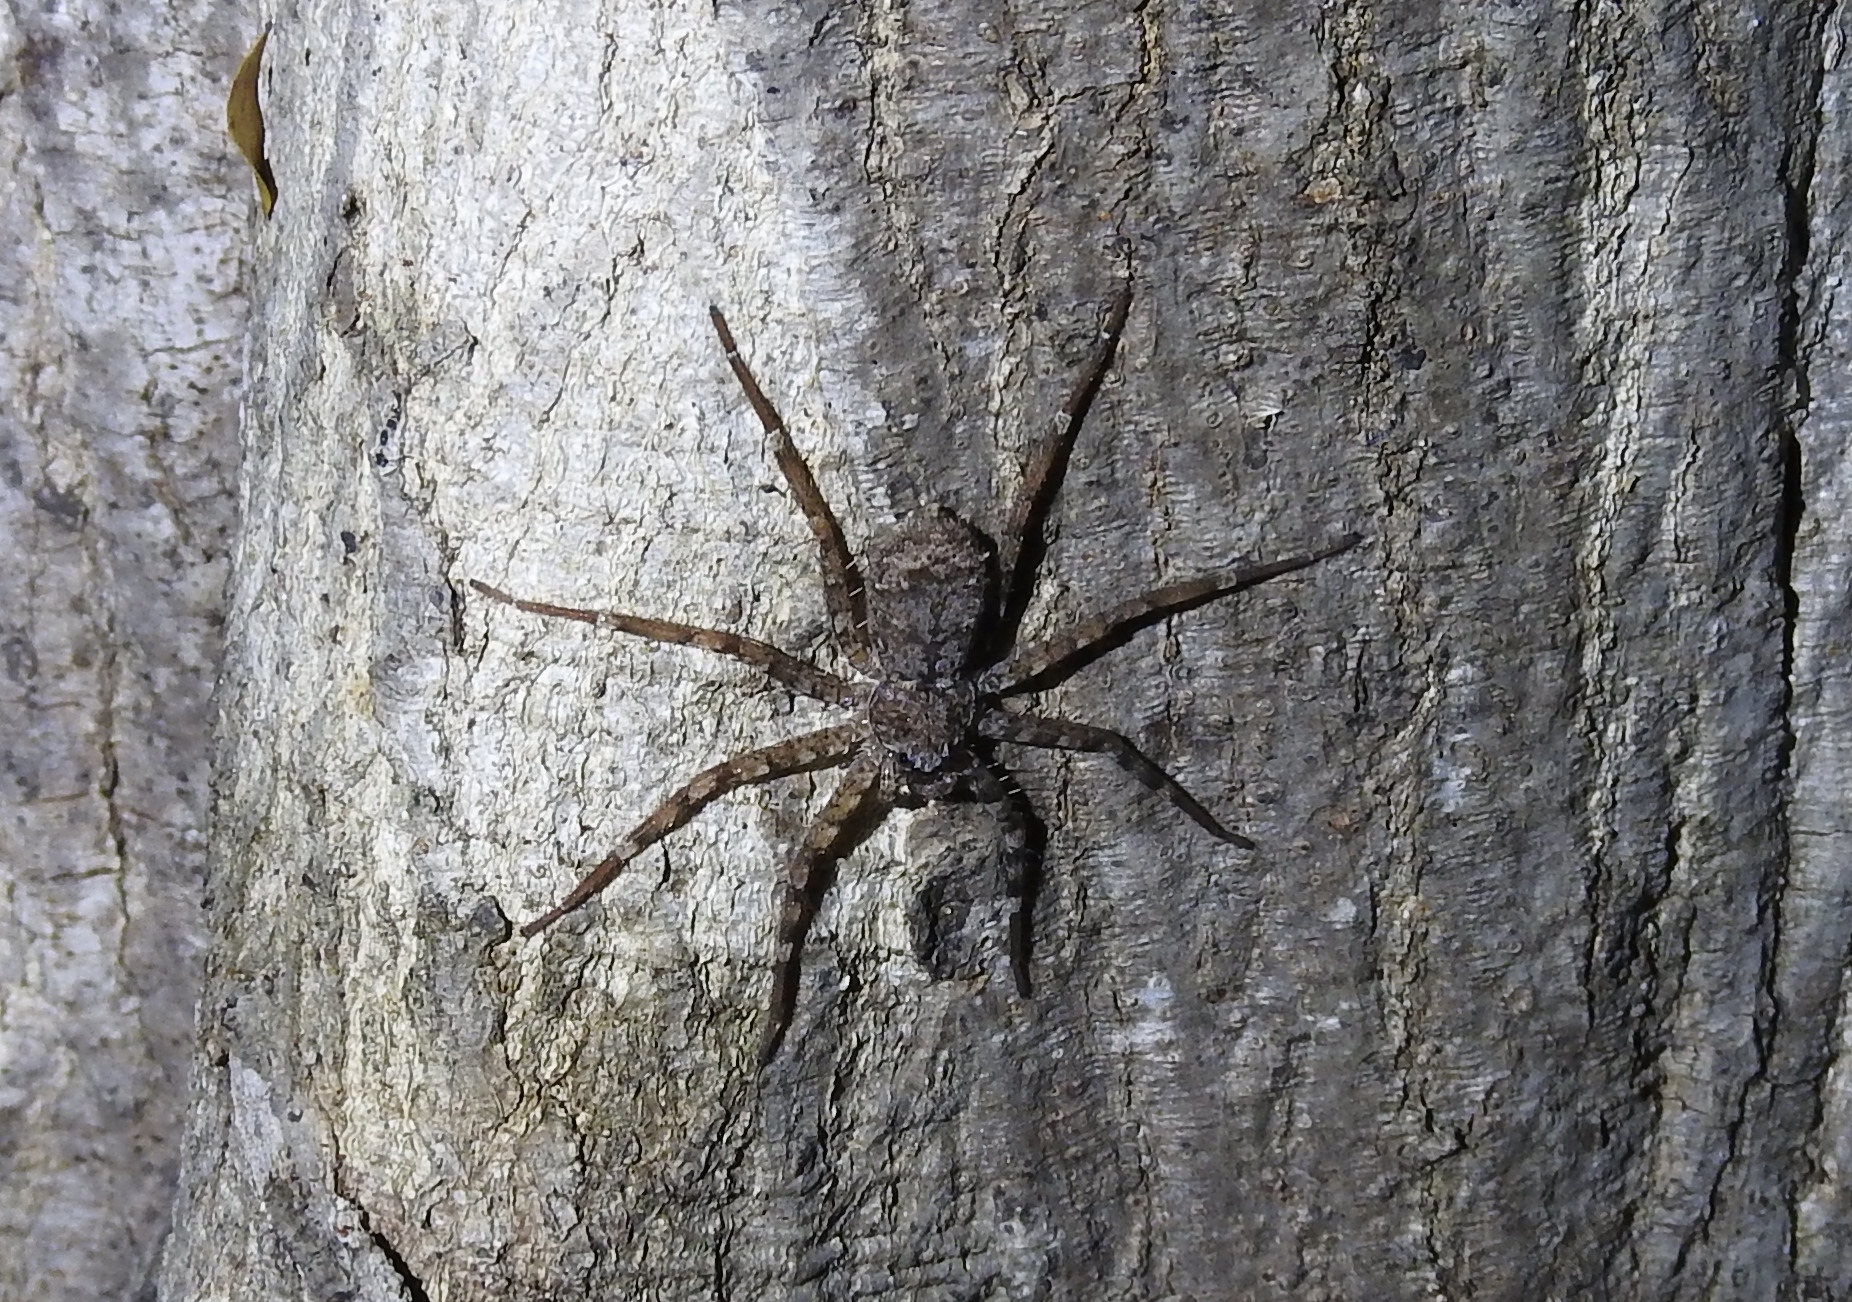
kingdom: Animalia
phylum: Arthropoda
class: Arachnida
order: Araneae
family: Selenopidae
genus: Selenops
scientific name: Selenops mexicanus
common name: Wall crab spiders
